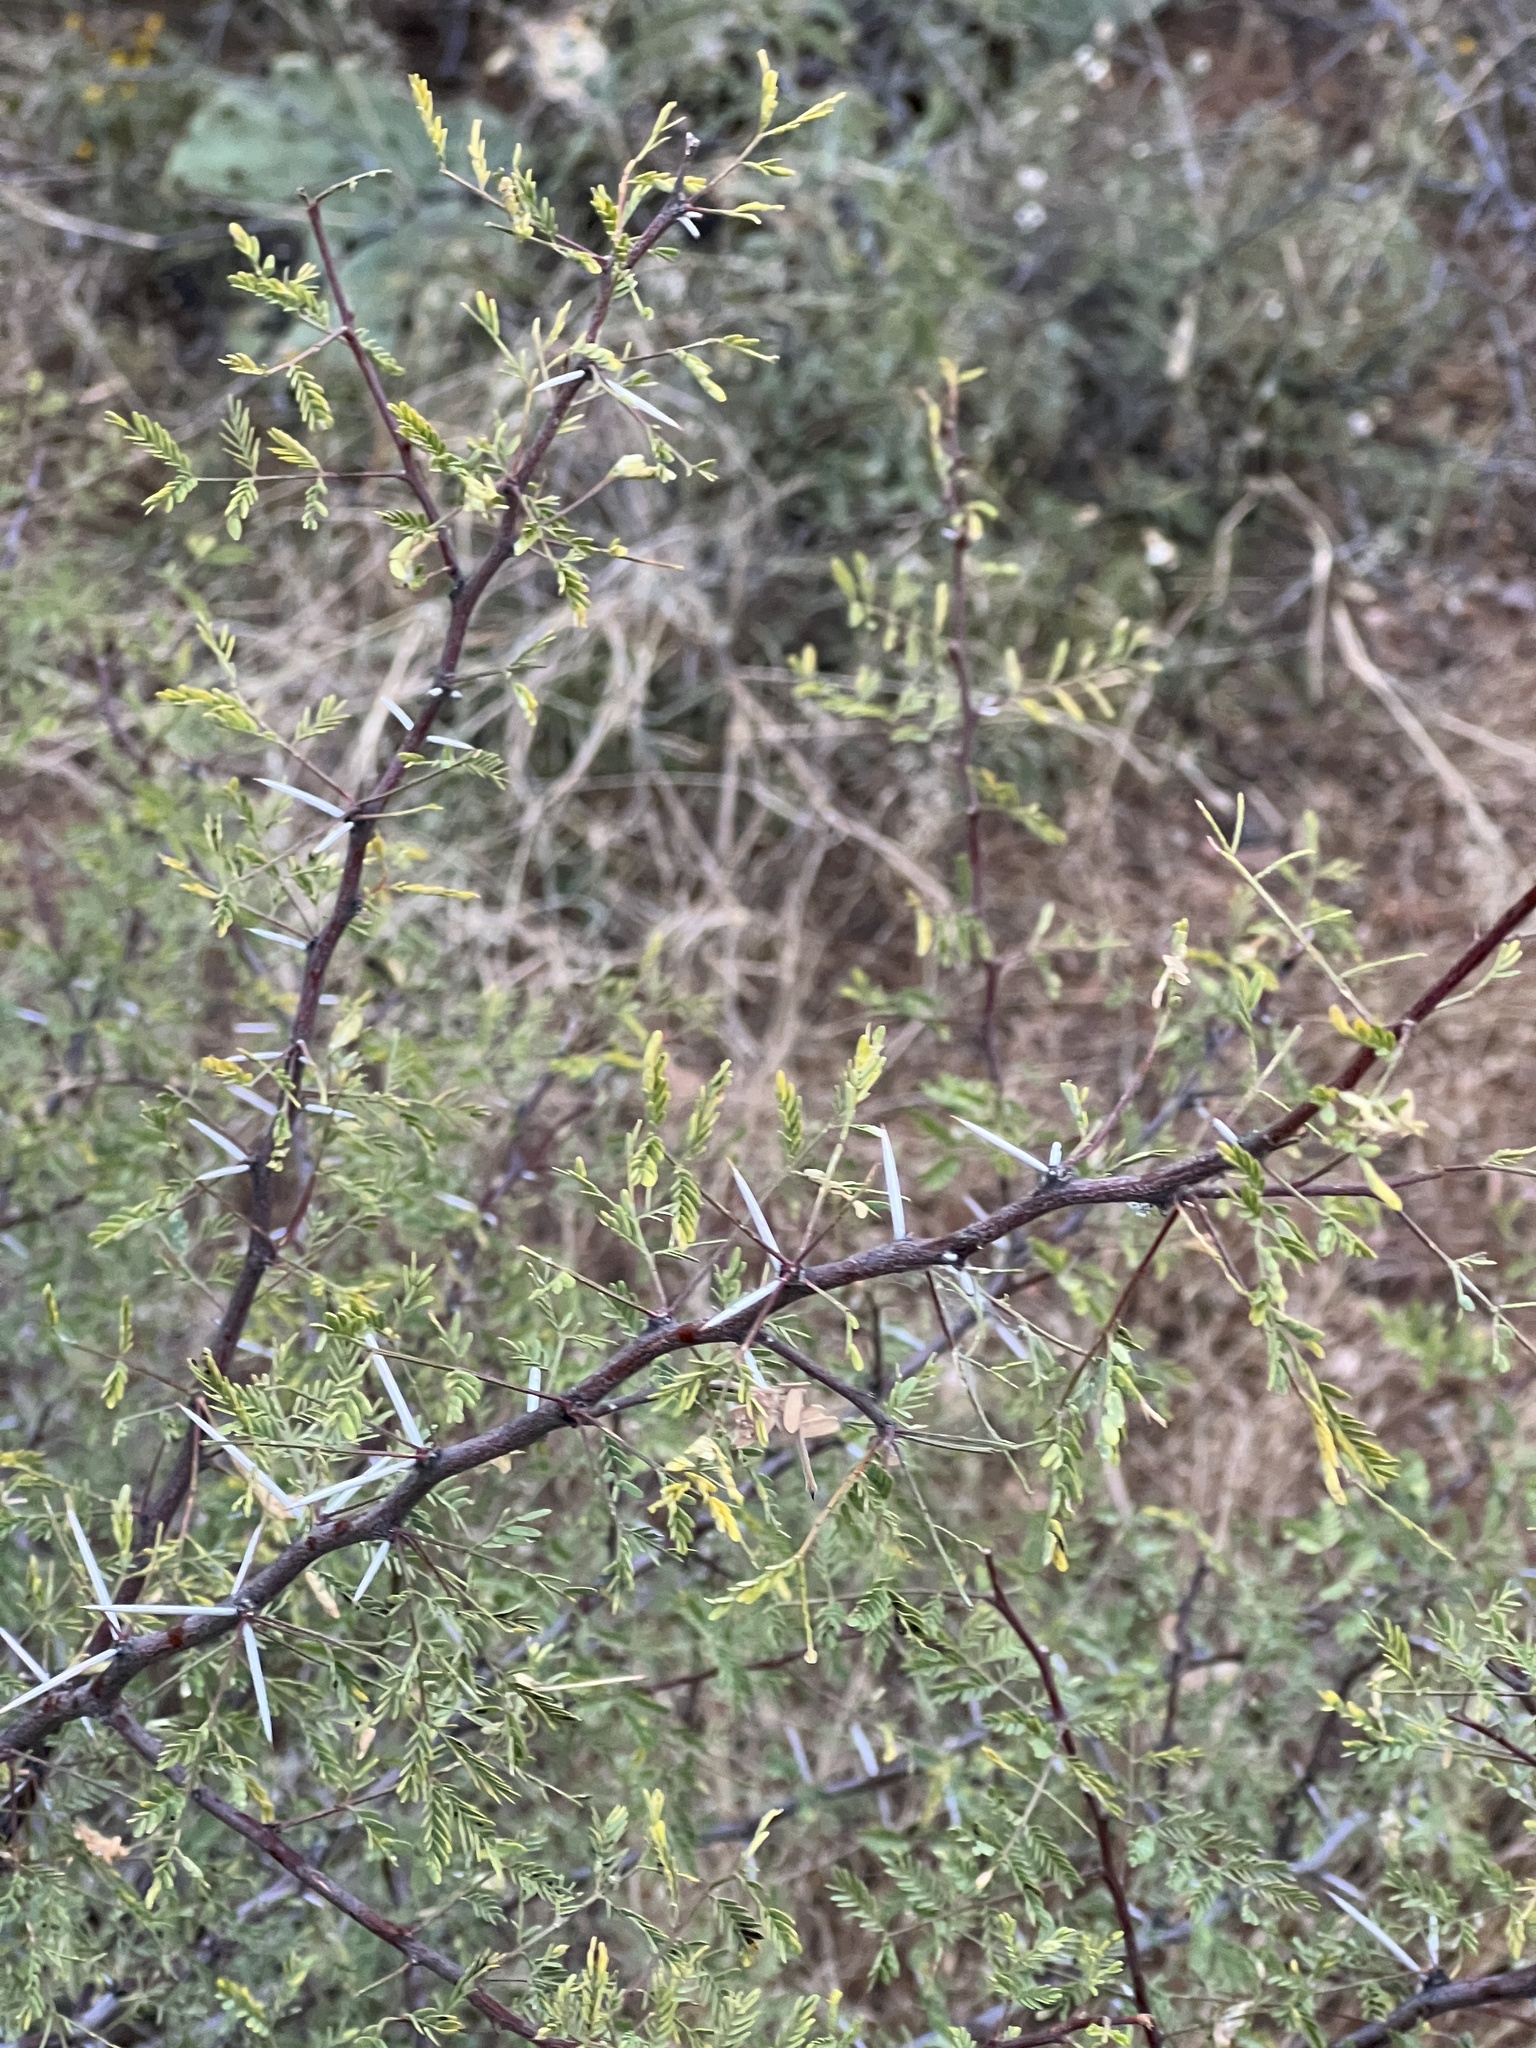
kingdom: Plantae
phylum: Tracheophyta
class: Magnoliopsida
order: Fabales
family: Fabaceae
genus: Vachellia
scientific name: Vachellia constricta
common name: Mescat acacia
